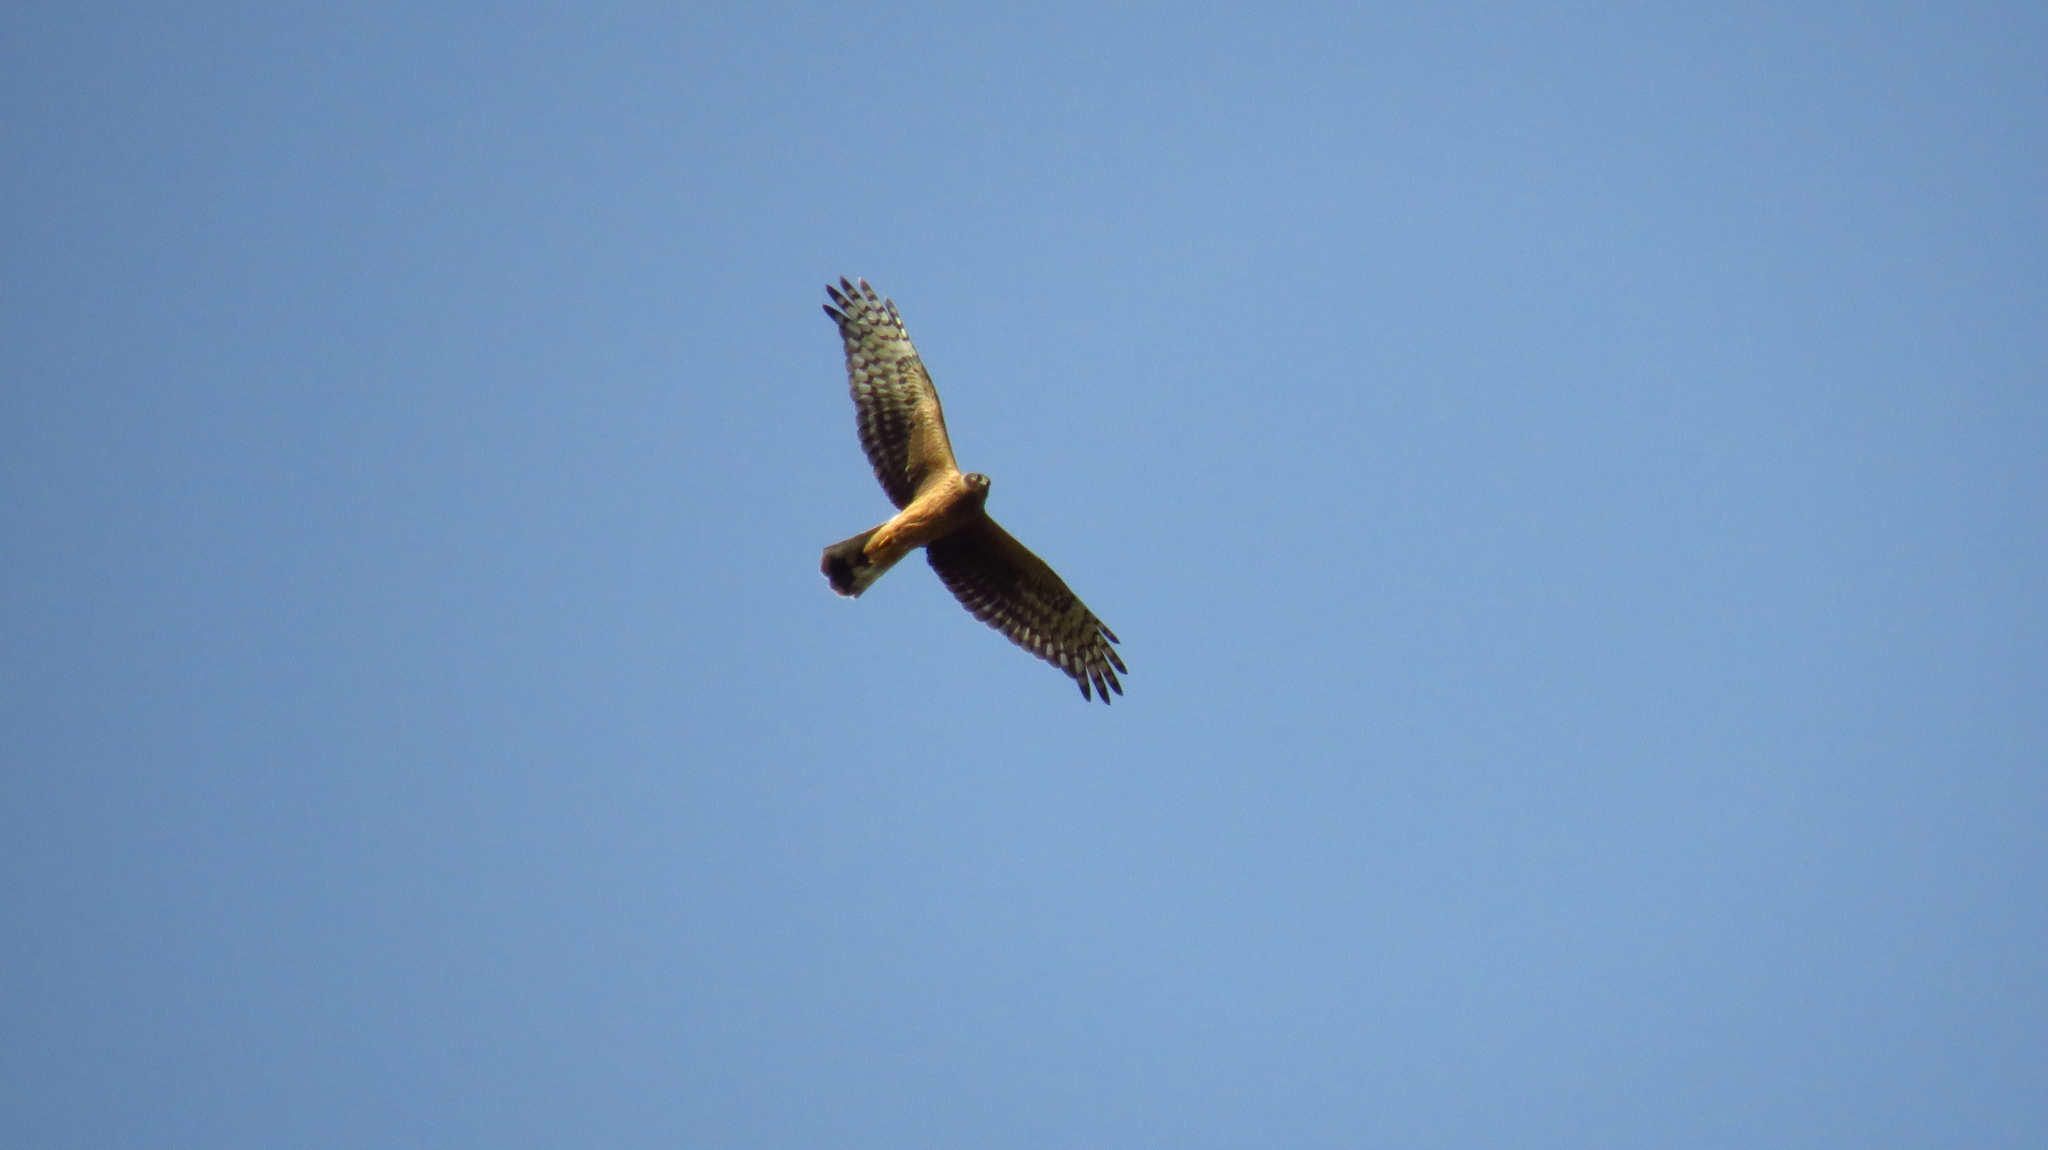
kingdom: Animalia
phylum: Chordata
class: Aves
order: Accipitriformes
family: Accipitridae
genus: Circus
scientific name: Circus cyaneus
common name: Hen harrier
